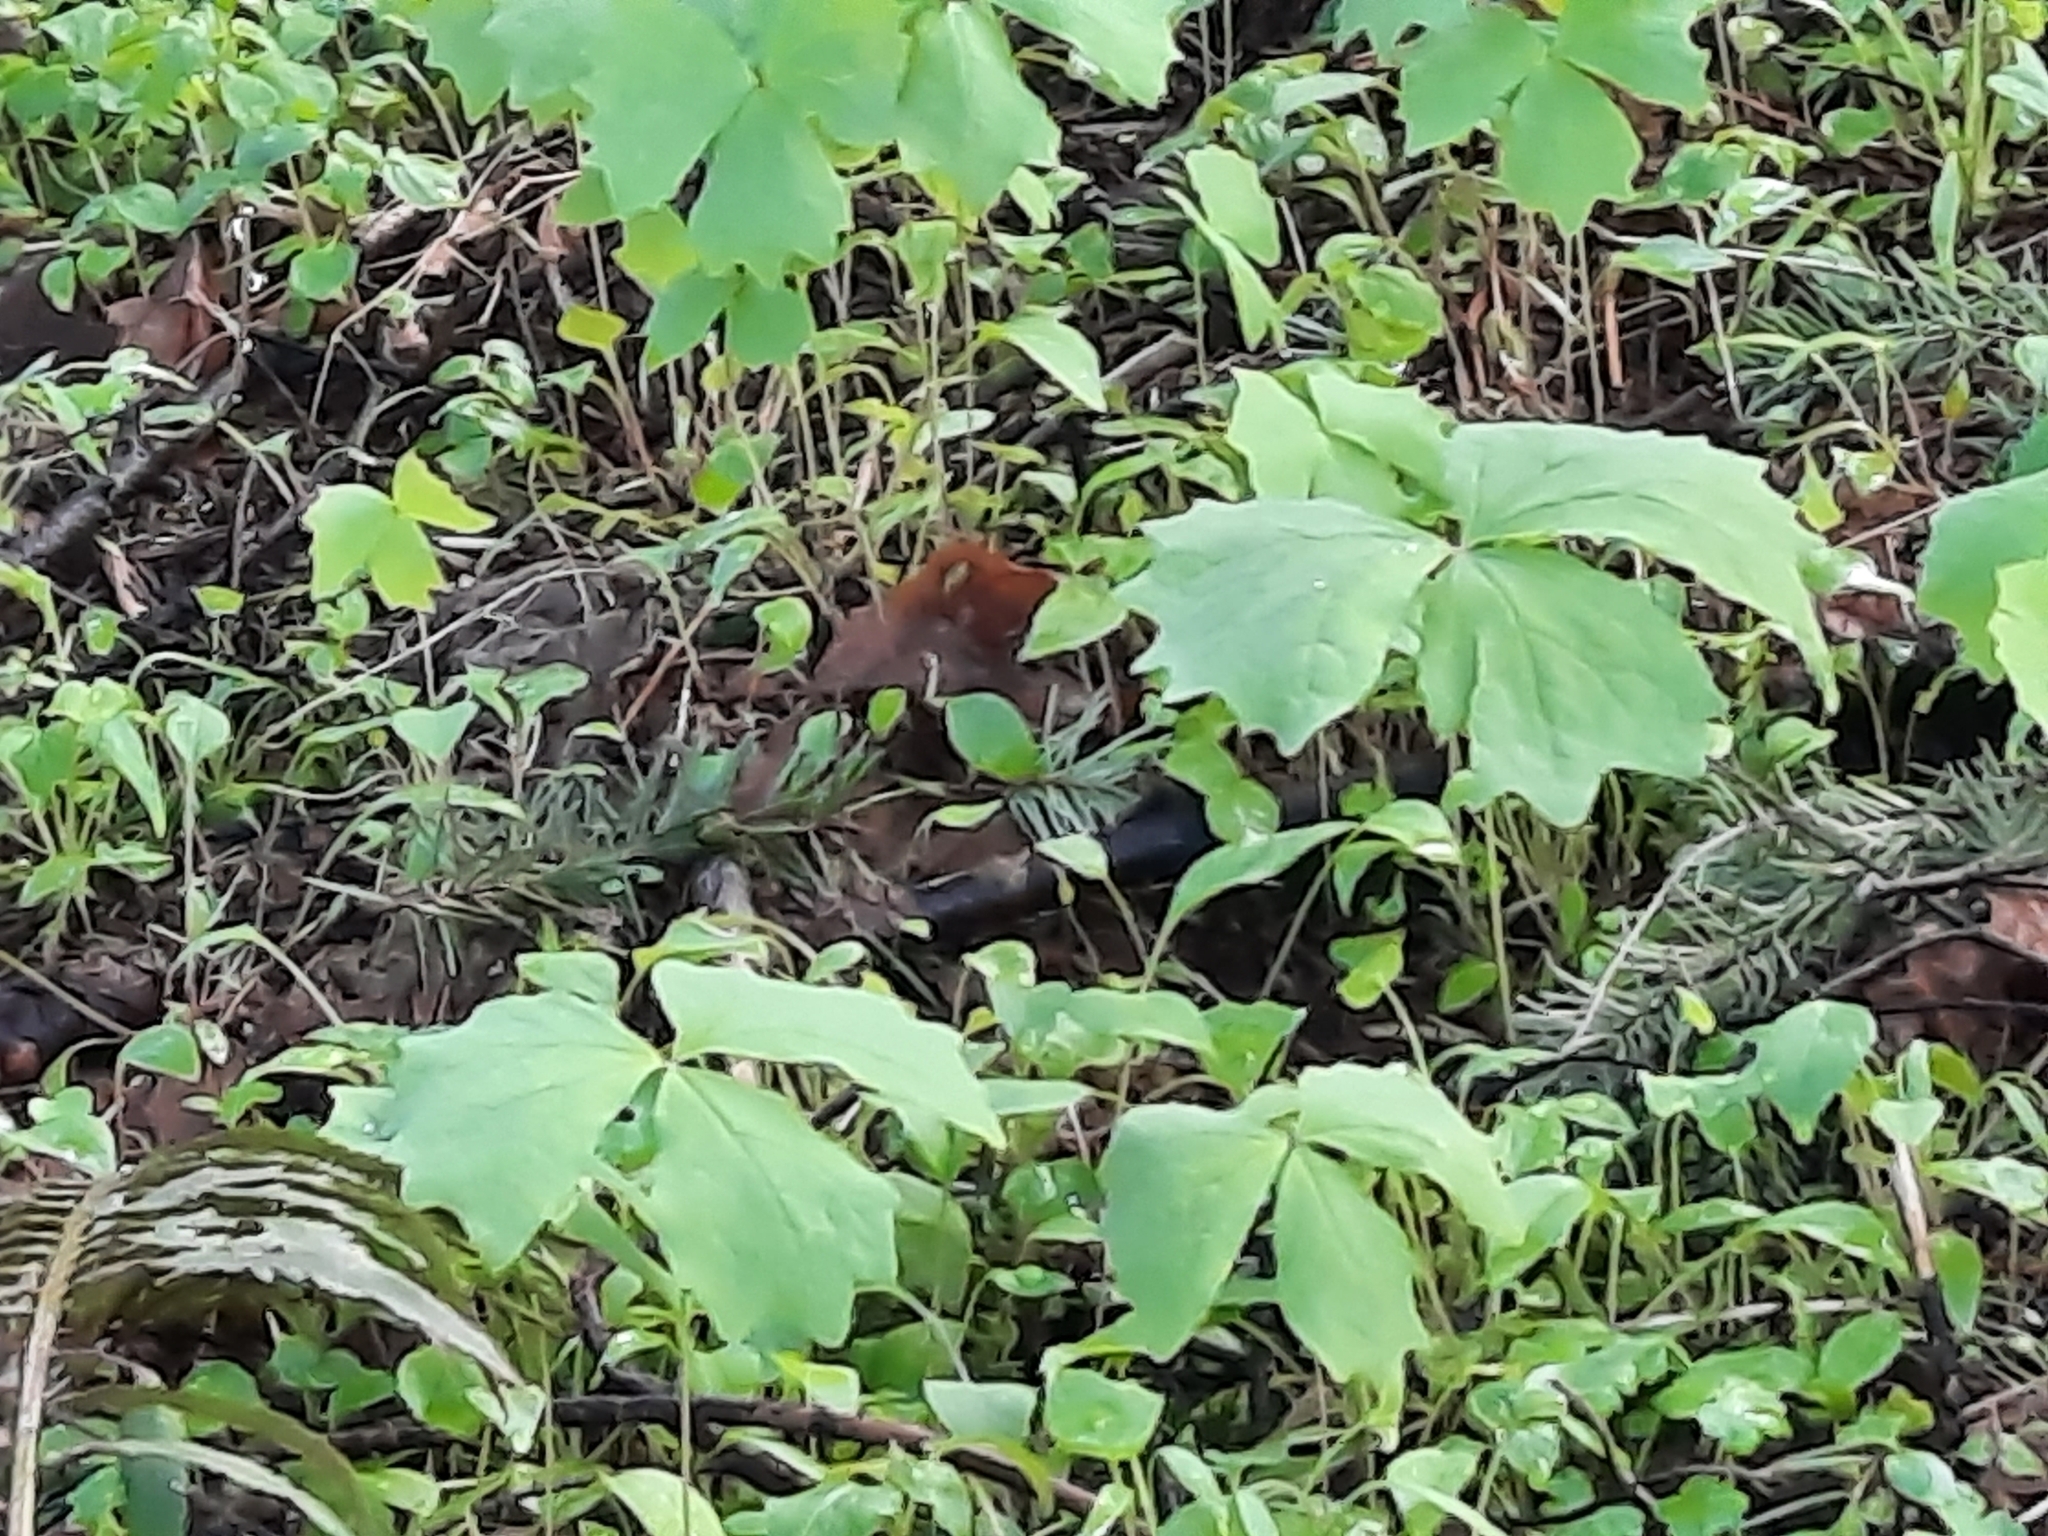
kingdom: Plantae
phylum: Tracheophyta
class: Magnoliopsida
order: Ranunculales
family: Berberidaceae
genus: Achlys
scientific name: Achlys triphylla
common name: Vanilla-leaf
